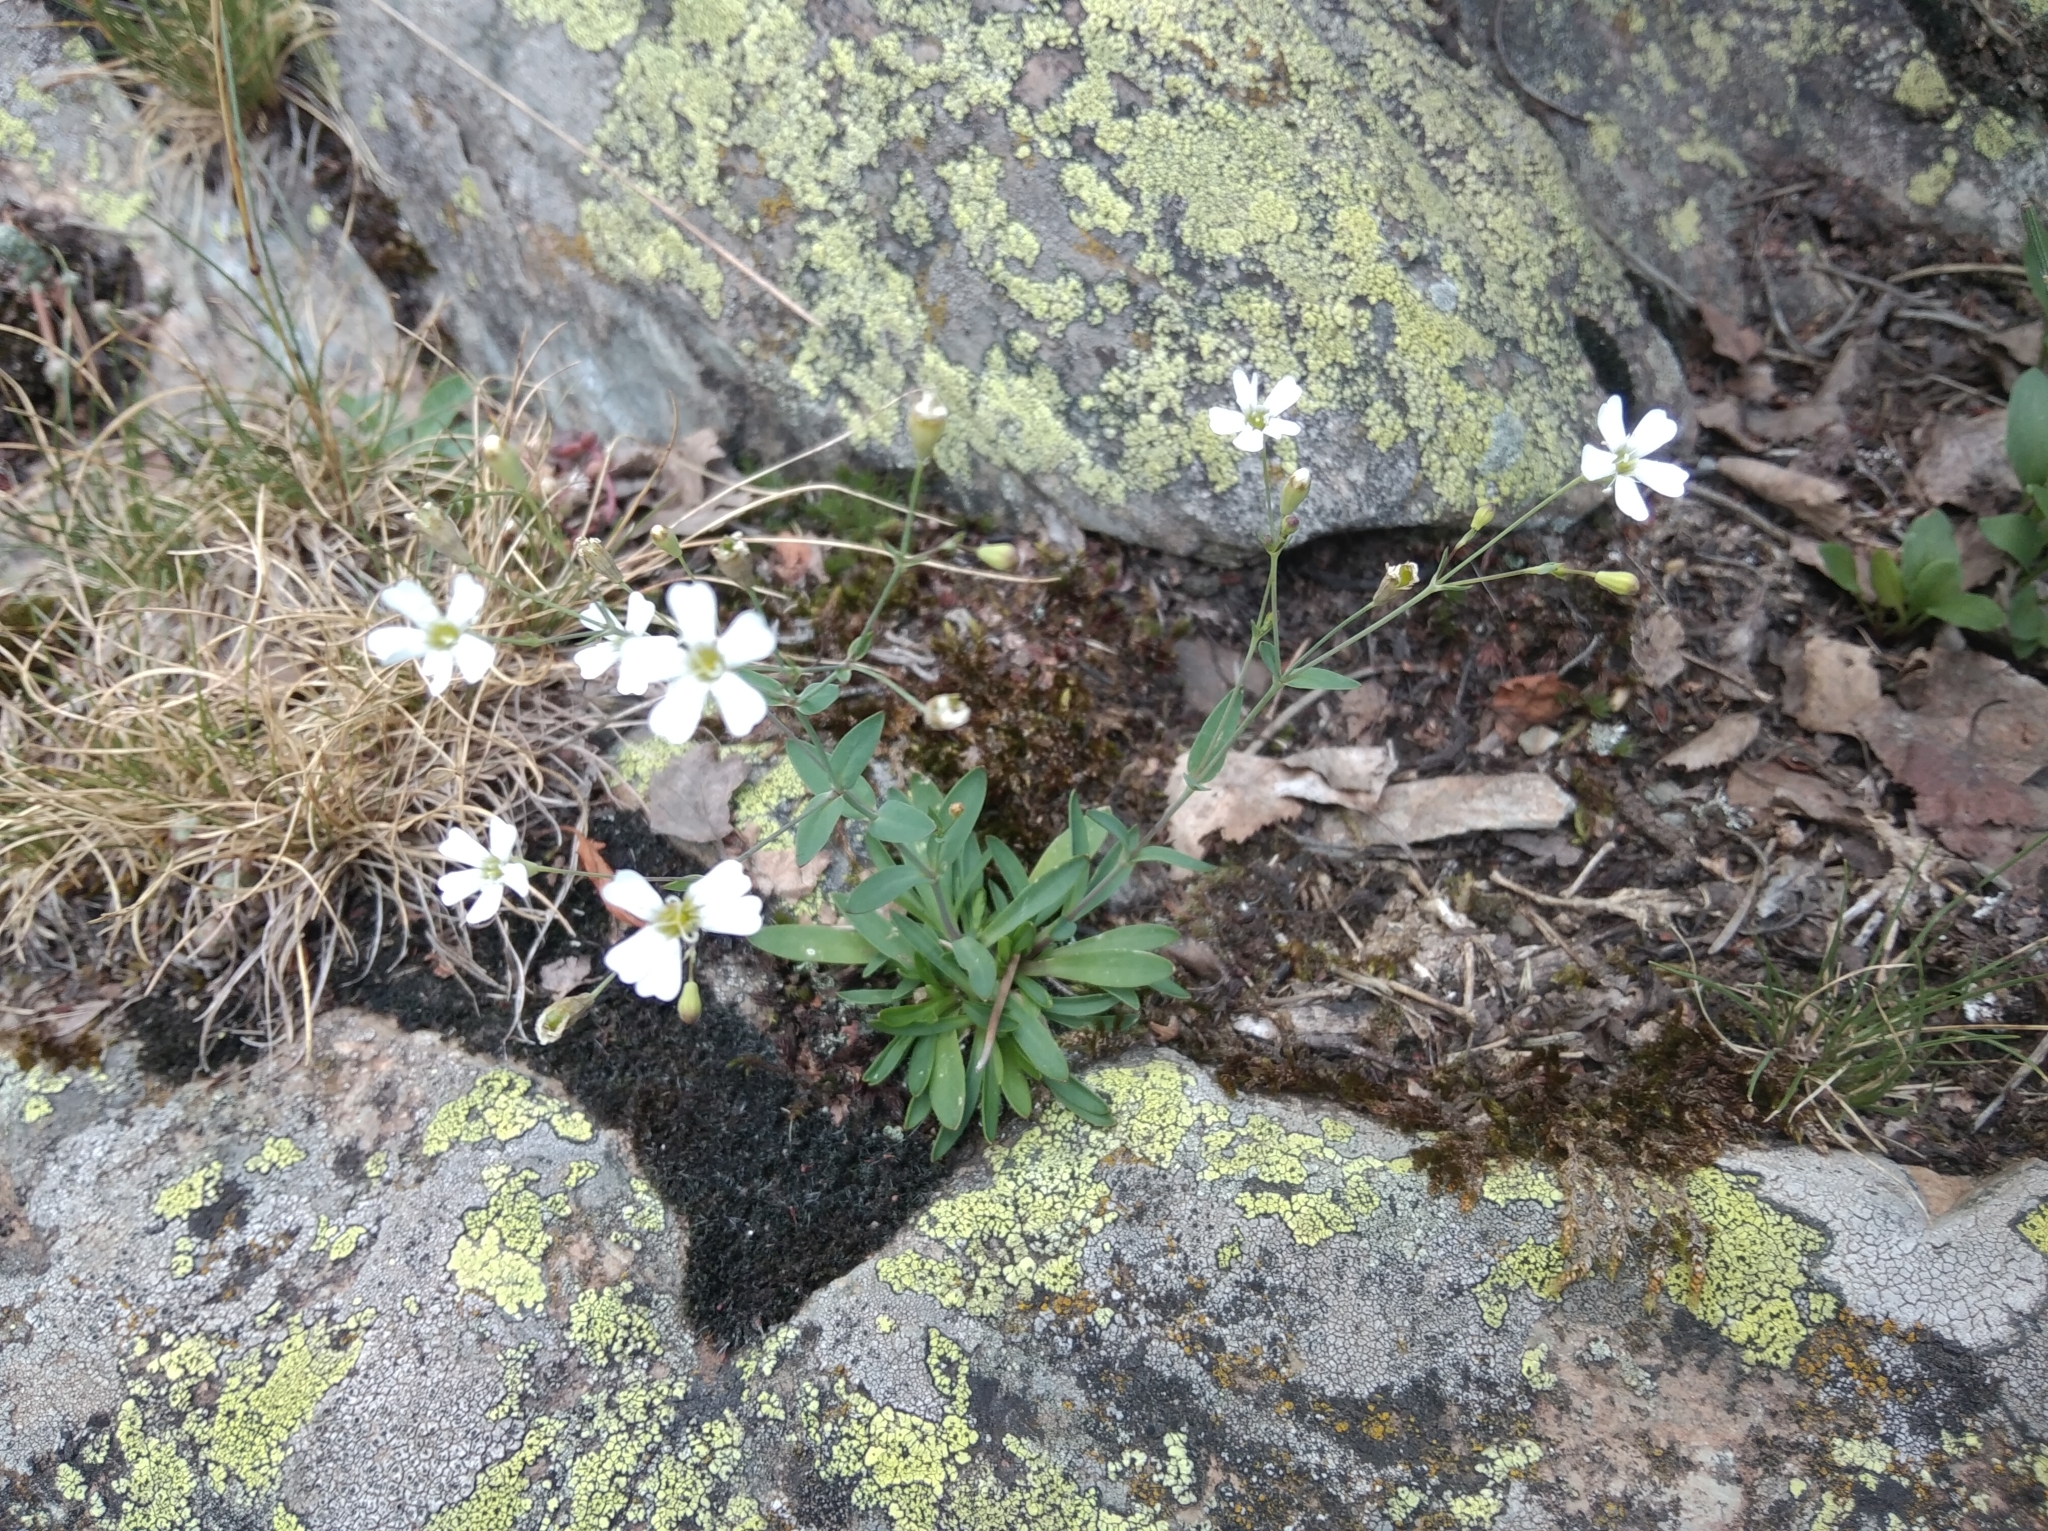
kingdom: Plantae
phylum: Tracheophyta
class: Magnoliopsida
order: Caryophyllales
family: Caryophyllaceae
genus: Atocion
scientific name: Atocion rupestre
